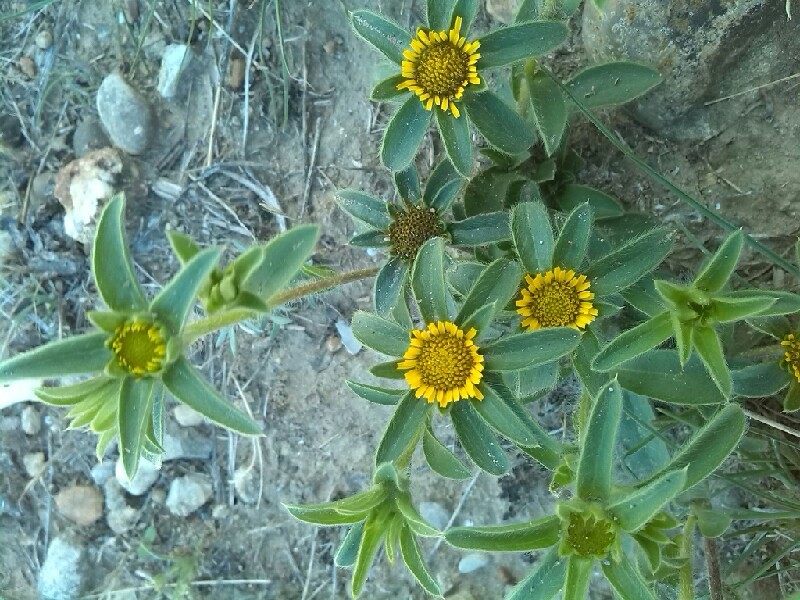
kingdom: Plantae
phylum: Tracheophyta
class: Magnoliopsida
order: Asterales
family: Asteraceae
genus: Pallenis
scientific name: Pallenis spinosa
